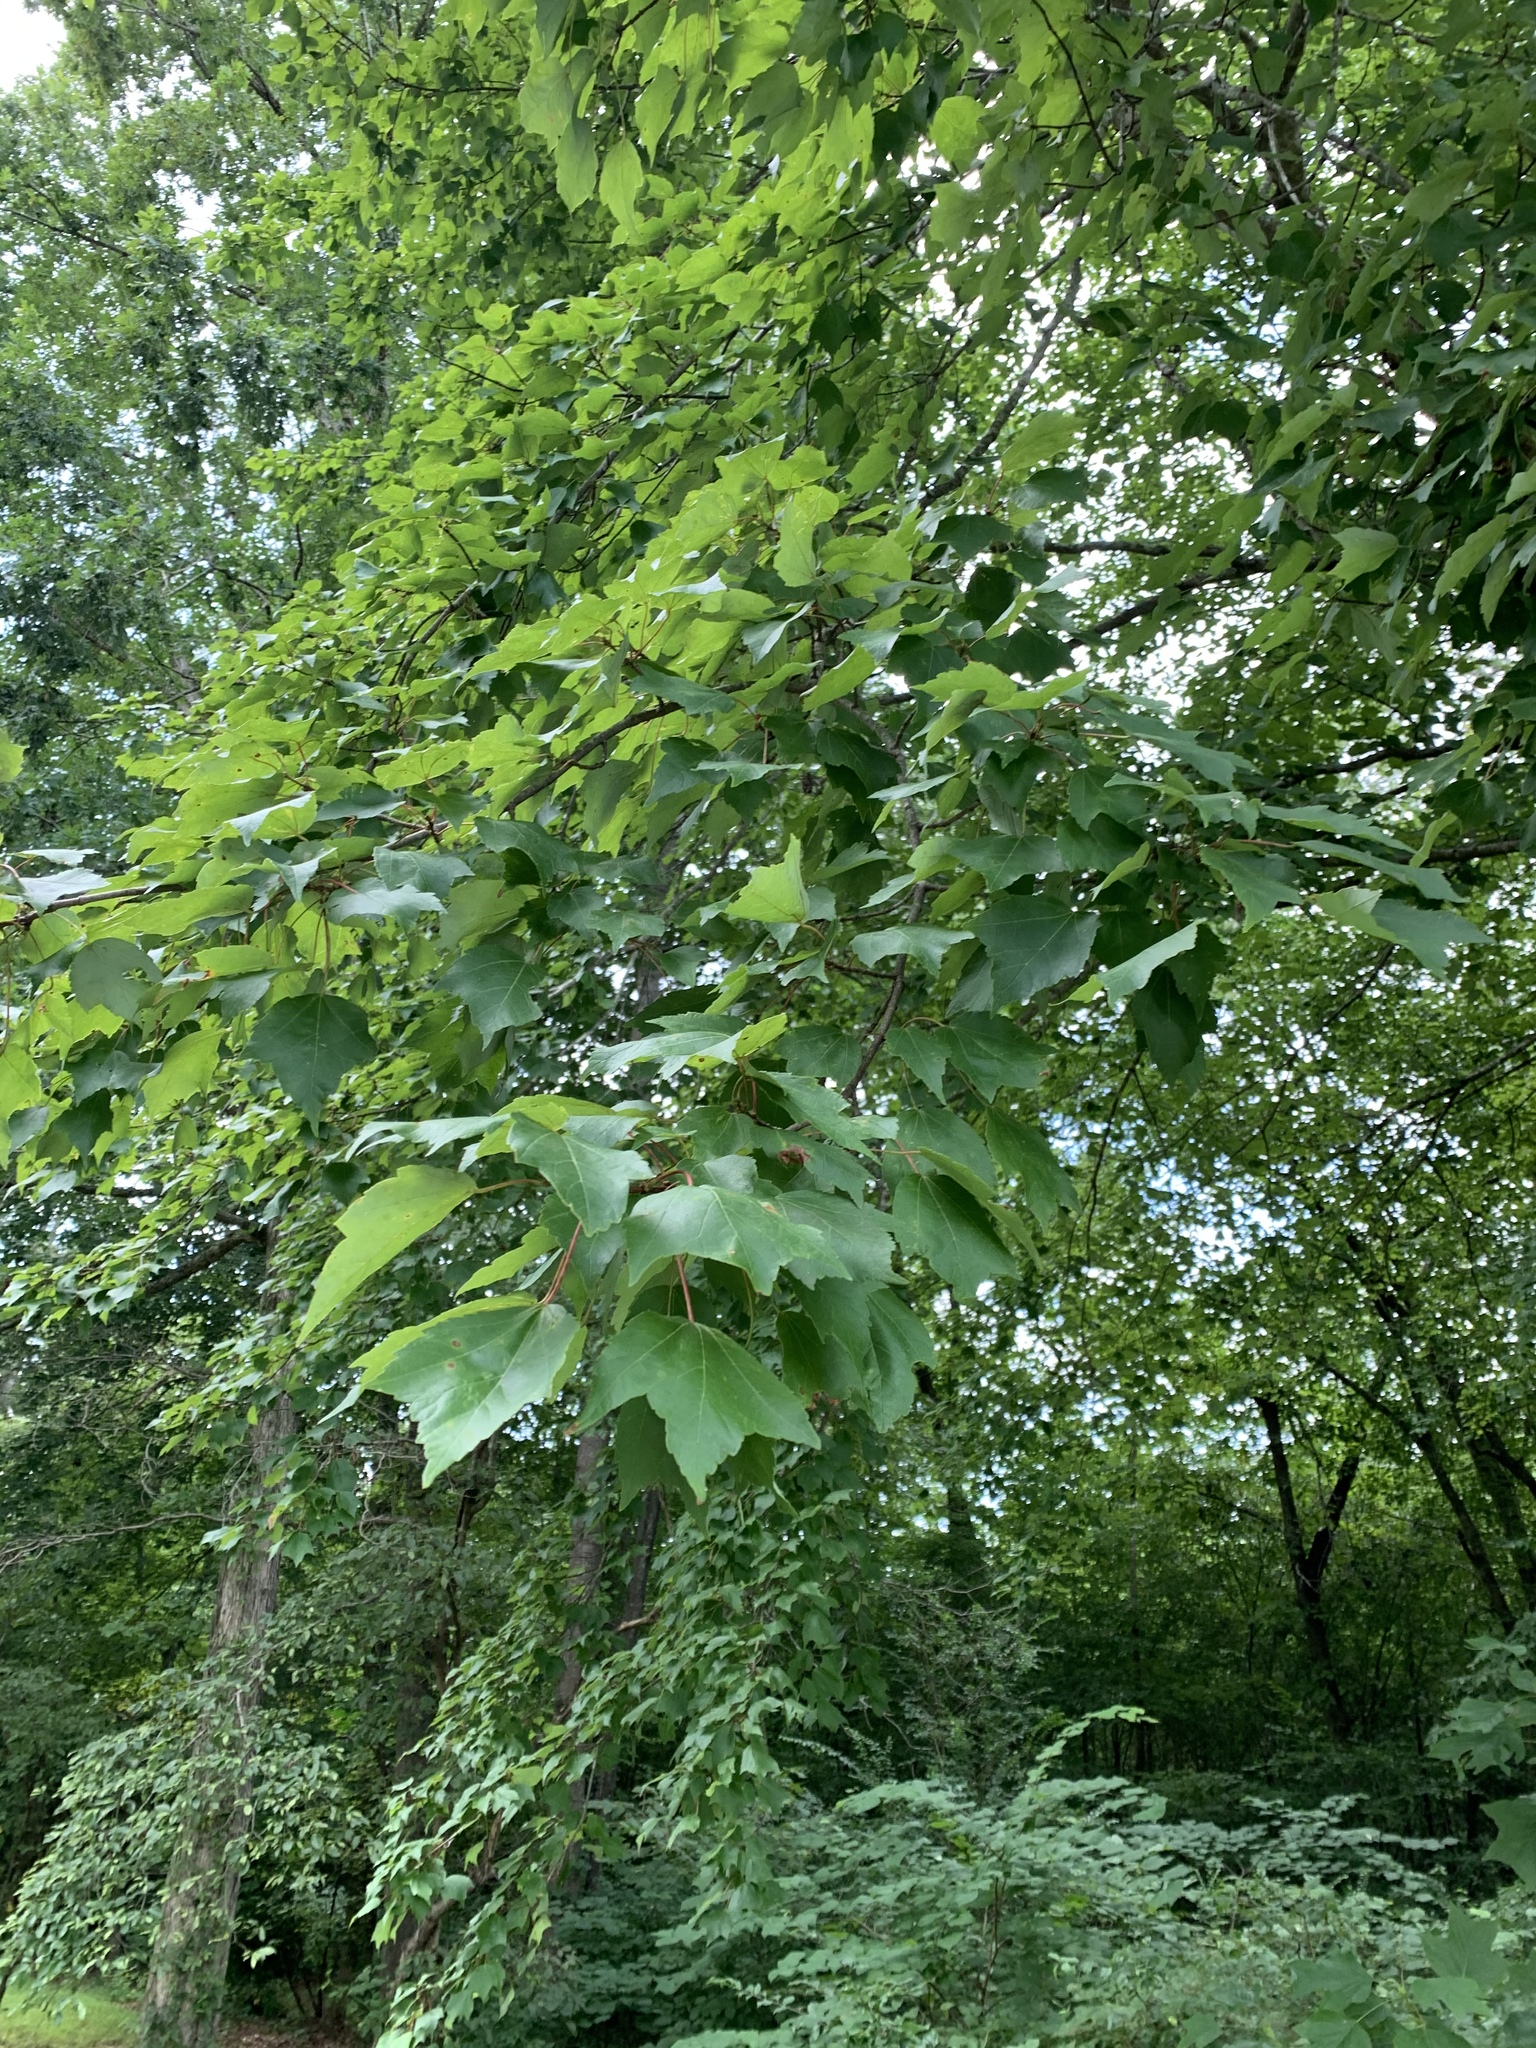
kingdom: Plantae
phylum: Tracheophyta
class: Magnoliopsida
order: Sapindales
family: Sapindaceae
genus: Acer
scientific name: Acer rubrum
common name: Red maple
